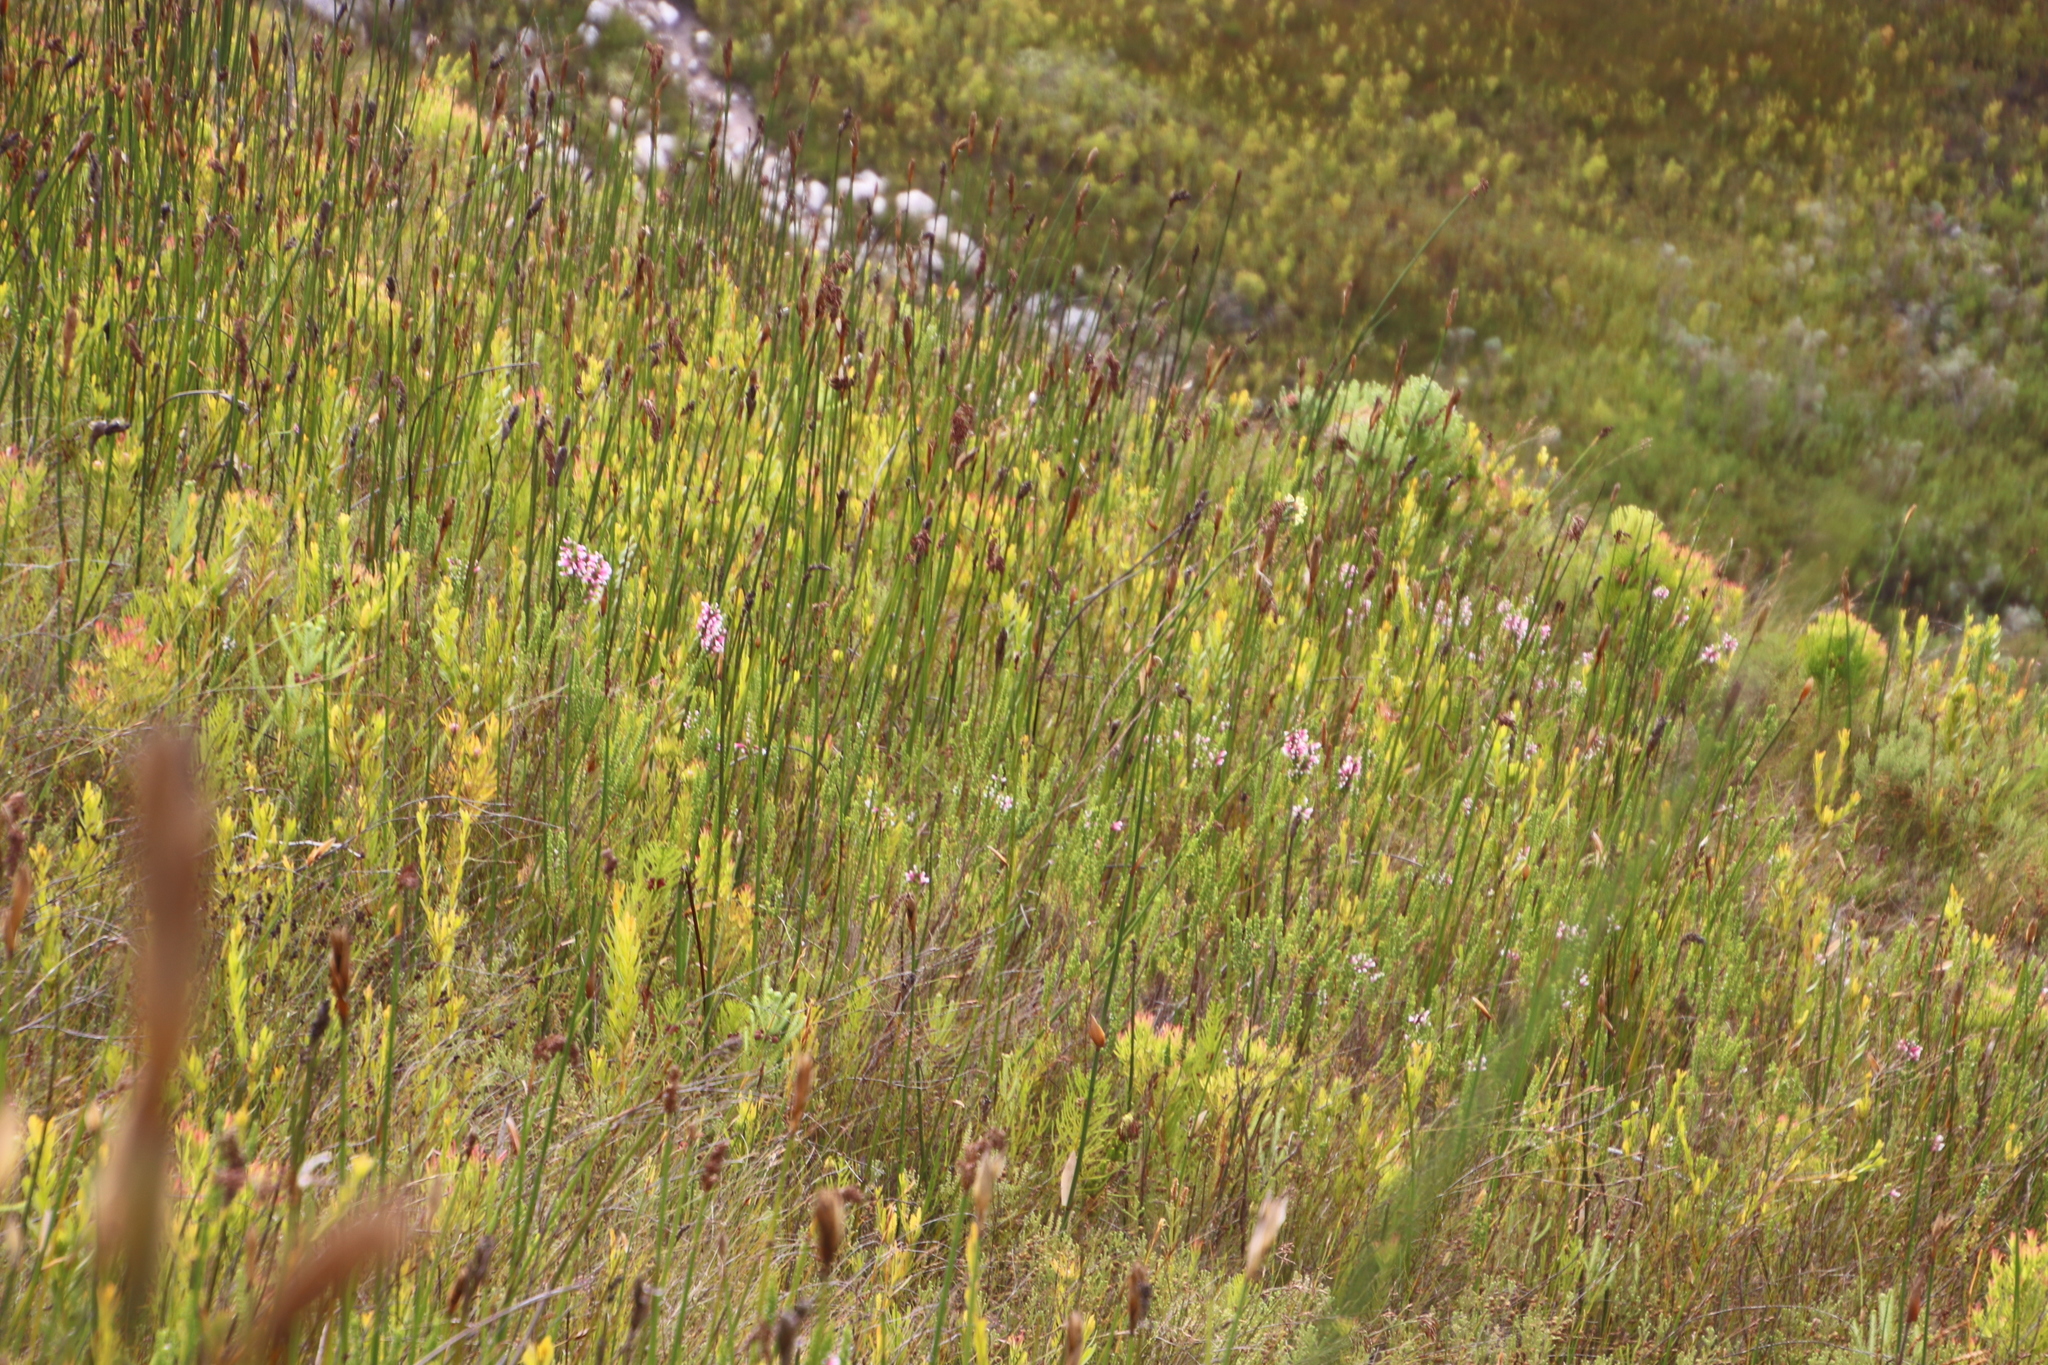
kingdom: Plantae
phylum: Tracheophyta
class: Magnoliopsida
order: Ericales
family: Ericaceae
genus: Erica
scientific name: Erica macowanii
